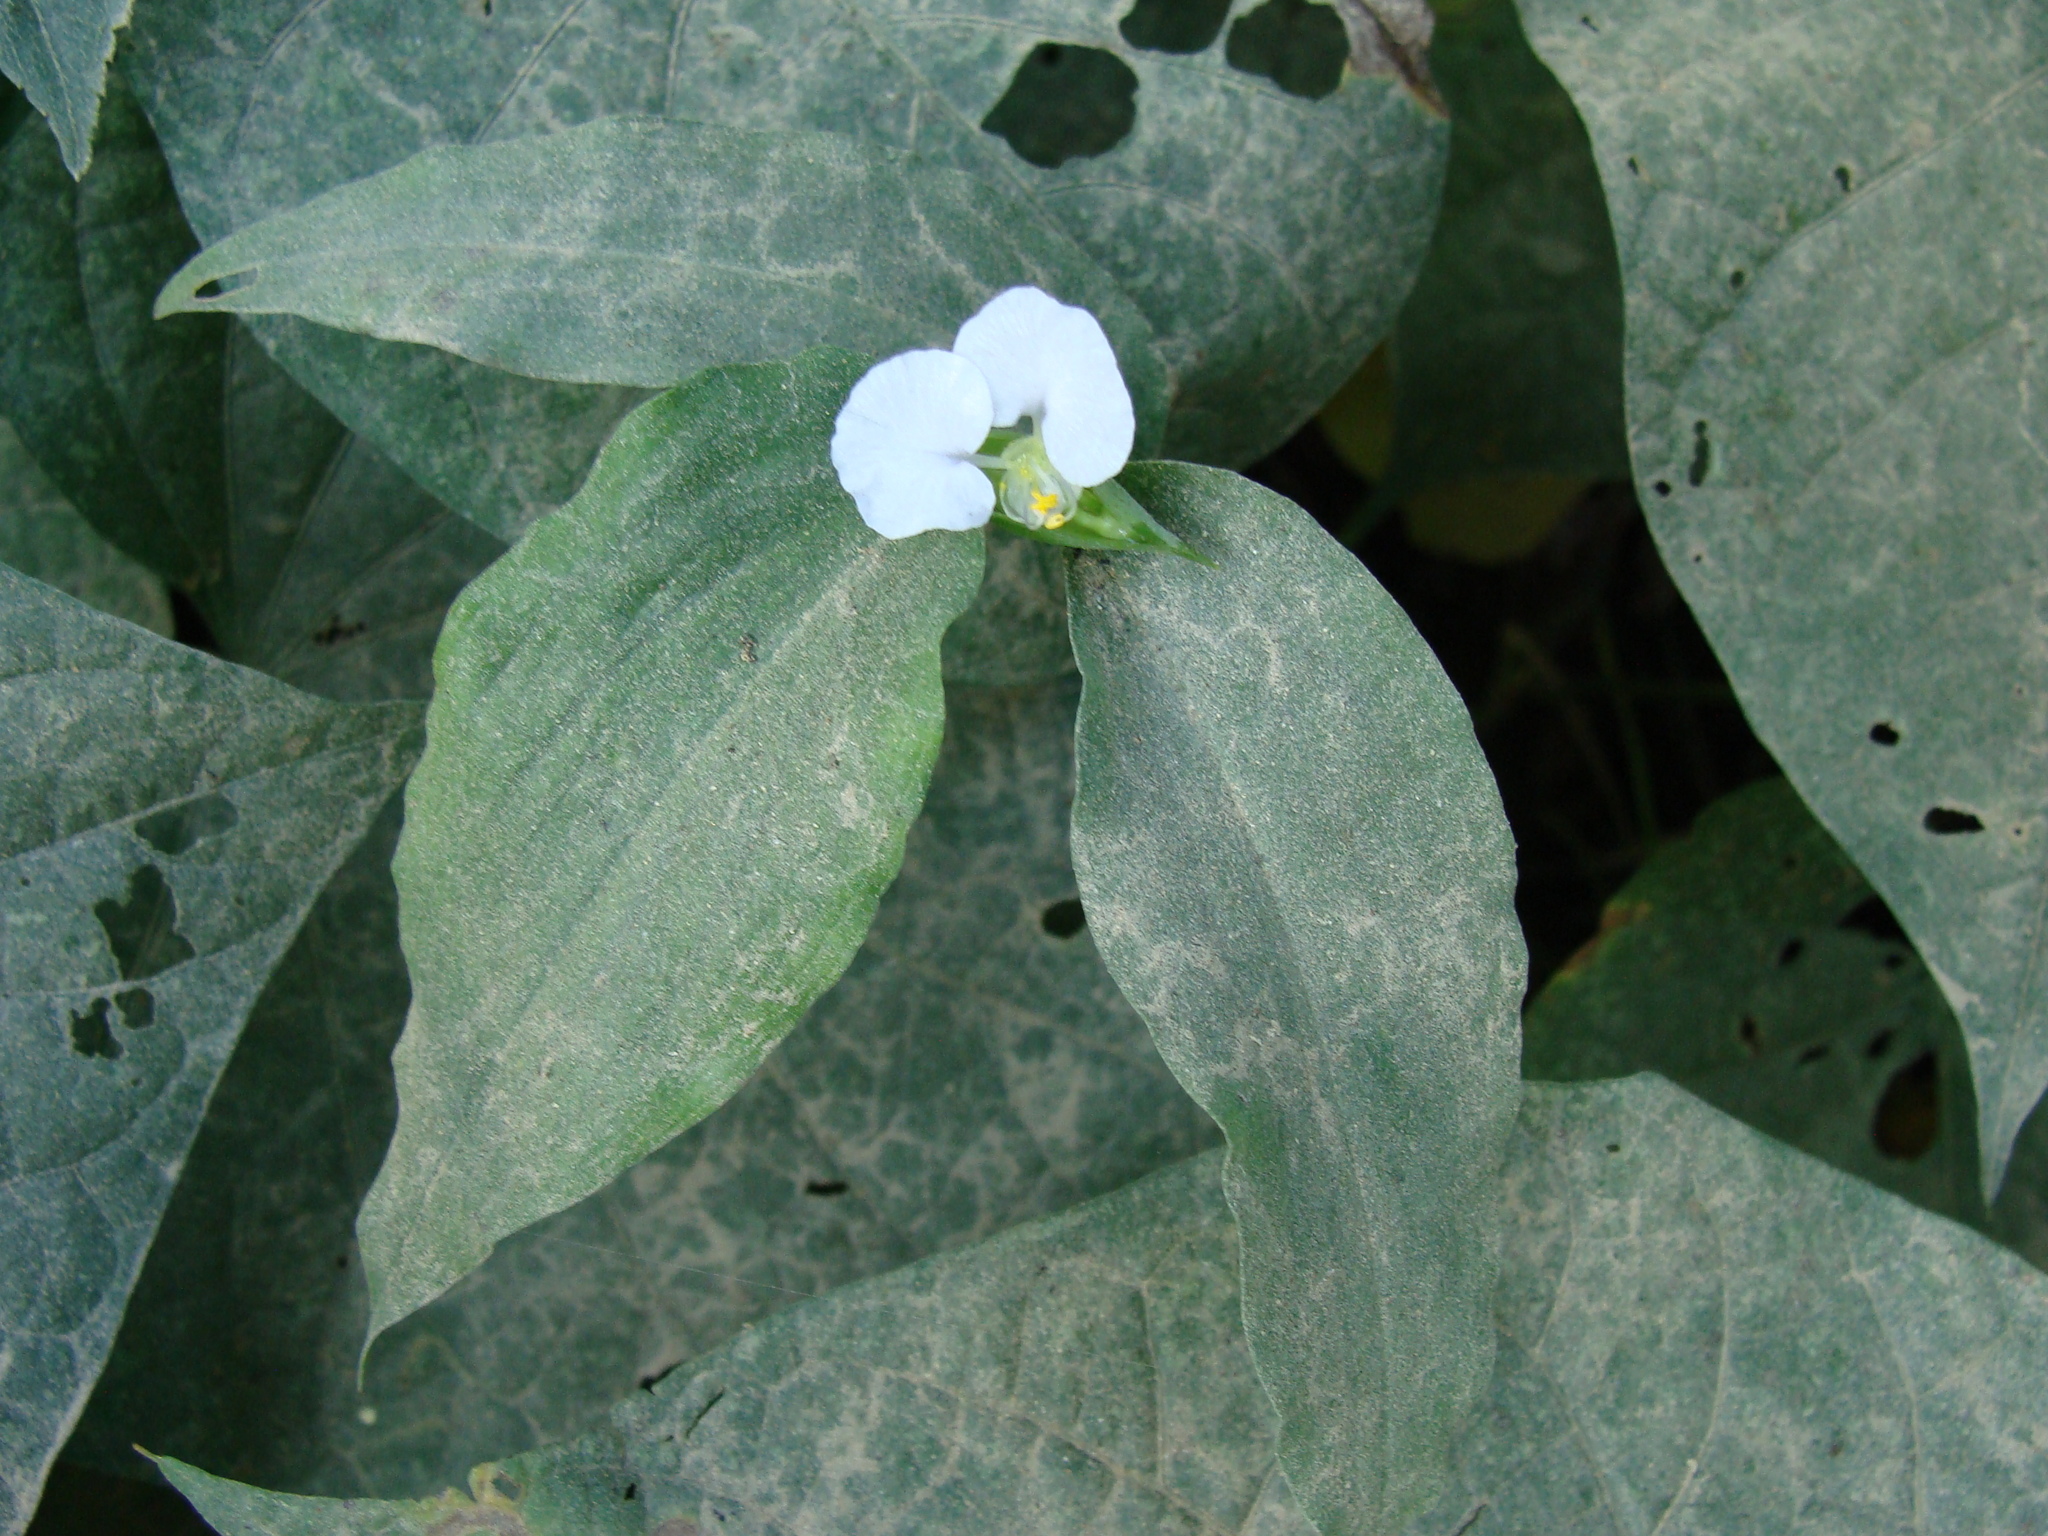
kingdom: Plantae
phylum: Tracheophyta
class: Liliopsida
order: Commelinales
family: Commelinaceae
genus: Commelina
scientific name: Commelina erecta
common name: Blousel blommetjie
